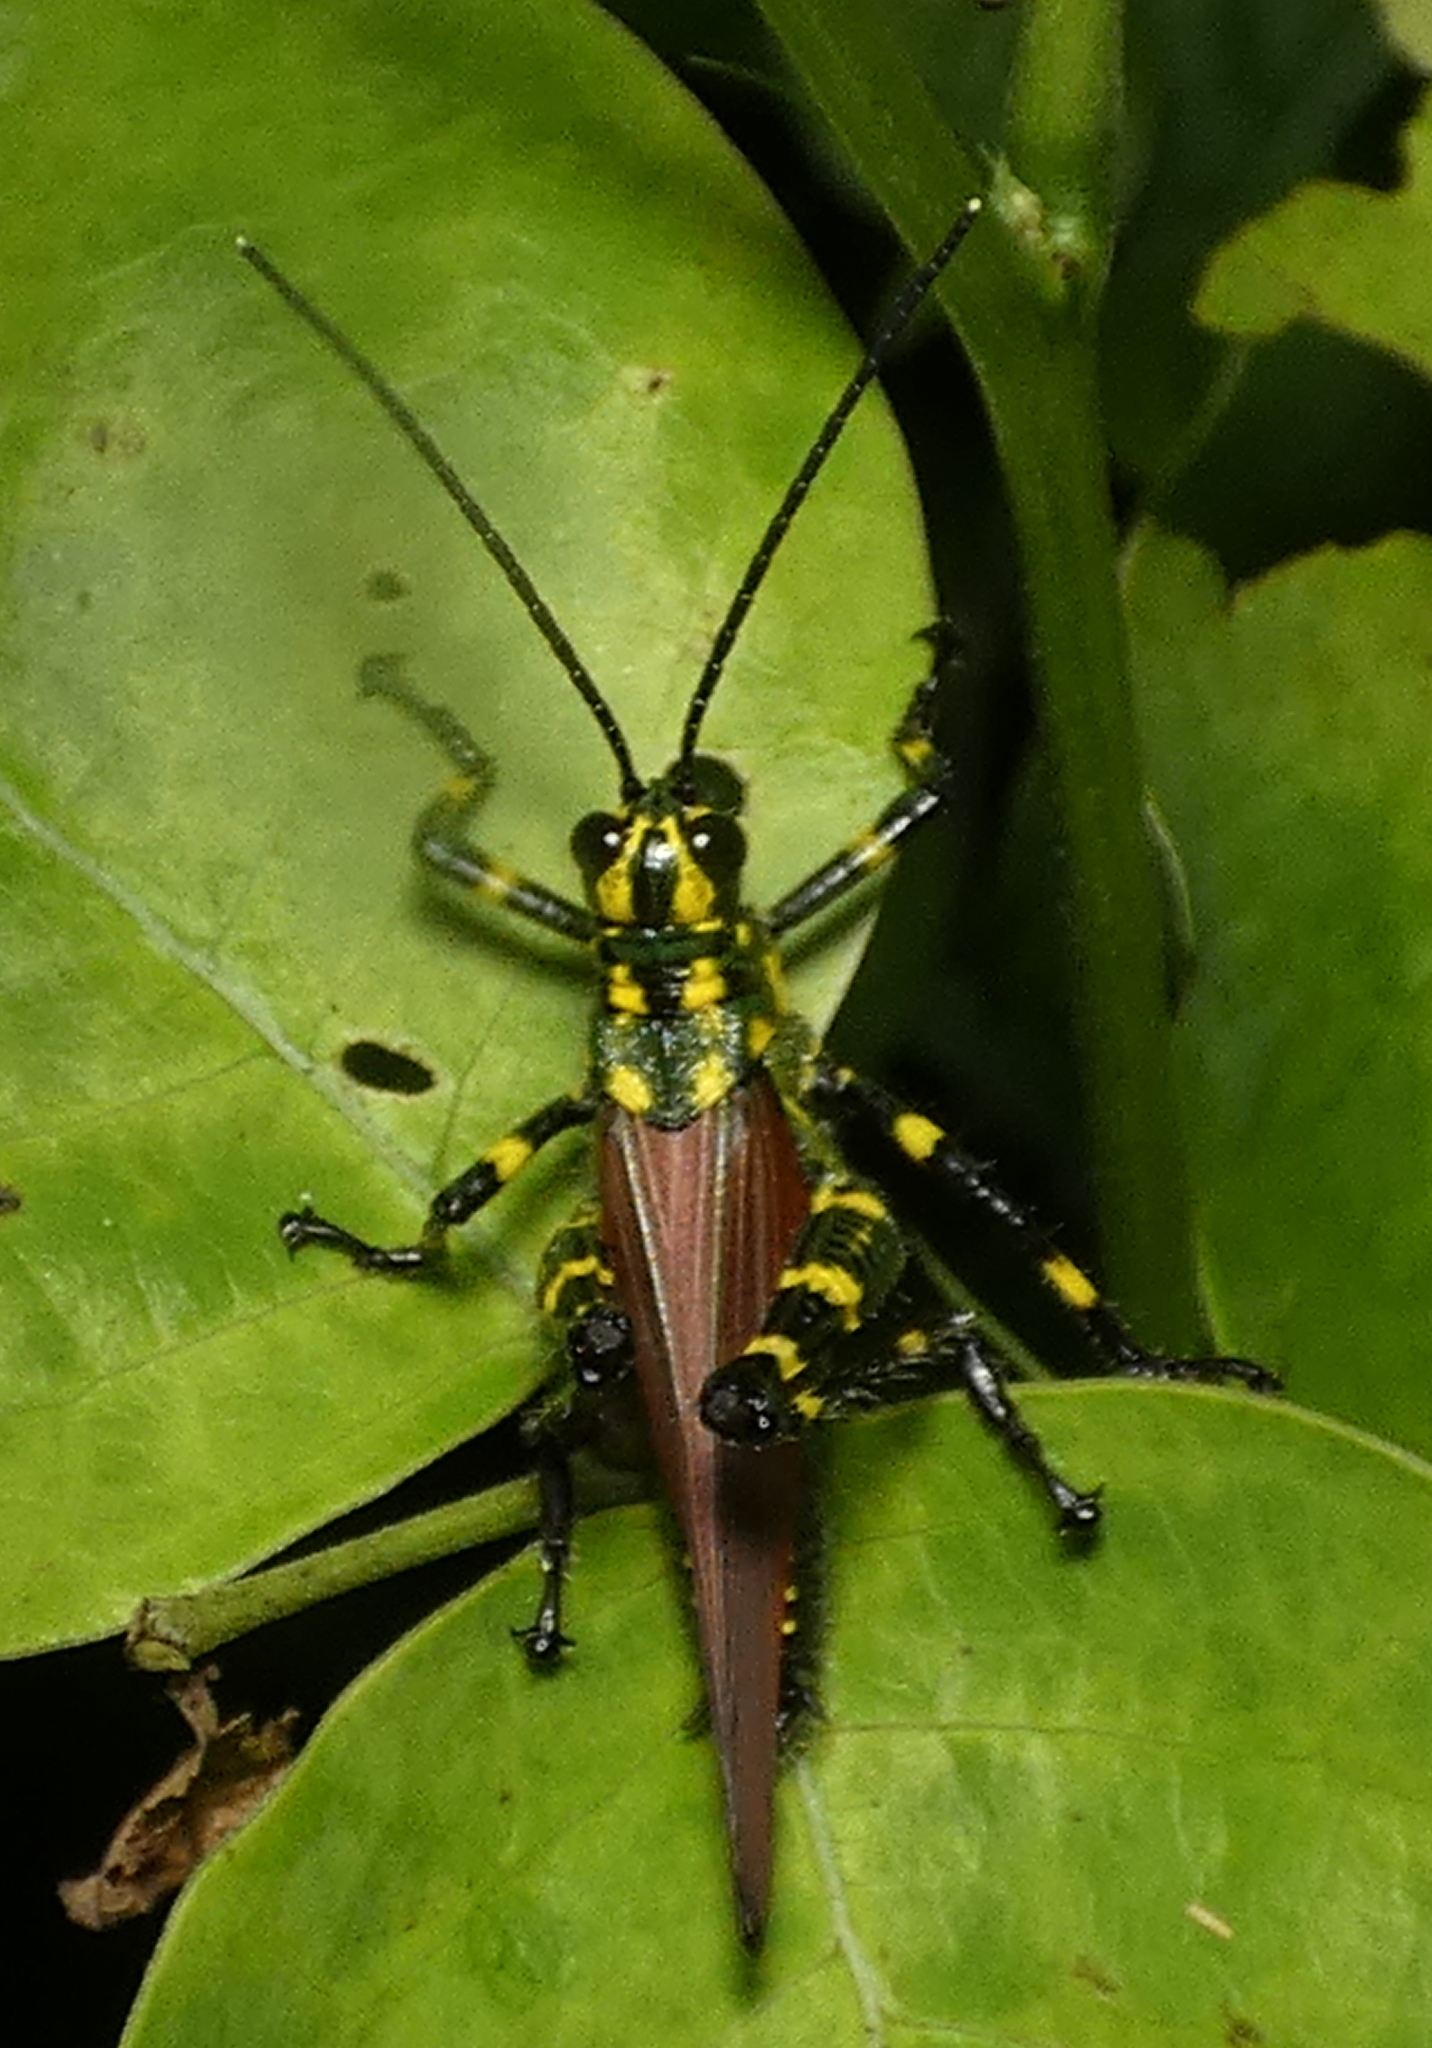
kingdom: Animalia
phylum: Arthropoda
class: Insecta
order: Orthoptera
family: Romaleidae
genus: Chromacris
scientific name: Chromacris speciosa
